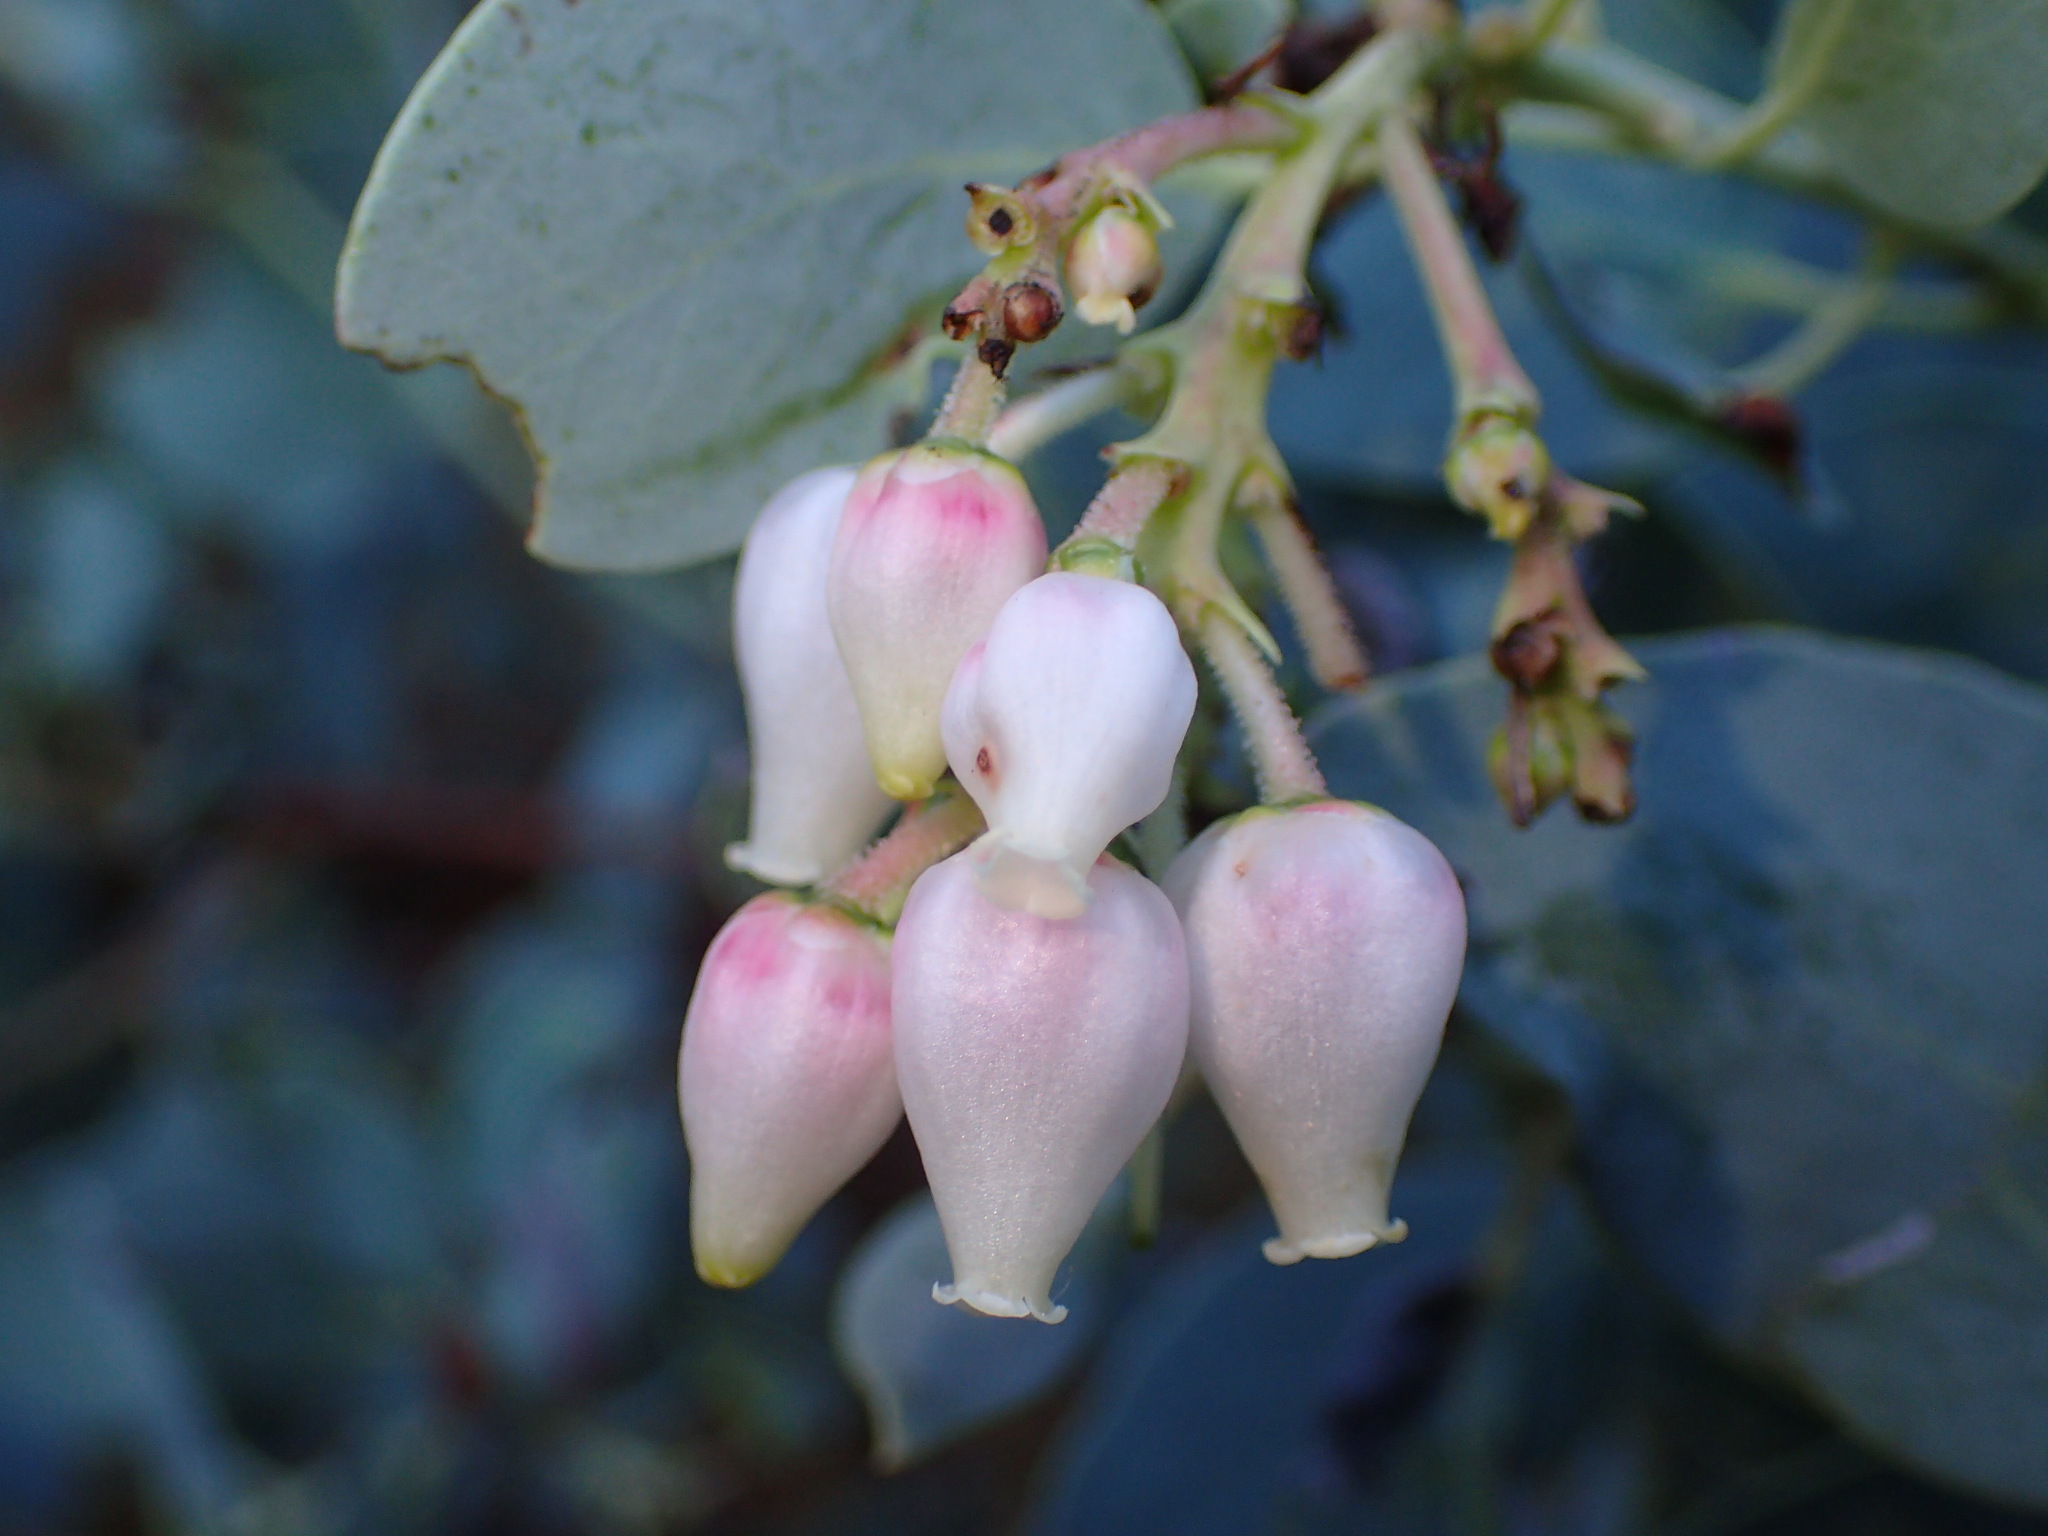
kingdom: Plantae
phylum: Tracheophyta
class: Magnoliopsida
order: Ericales
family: Ericaceae
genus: Arctostaphylos
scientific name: Arctostaphylos glauca
